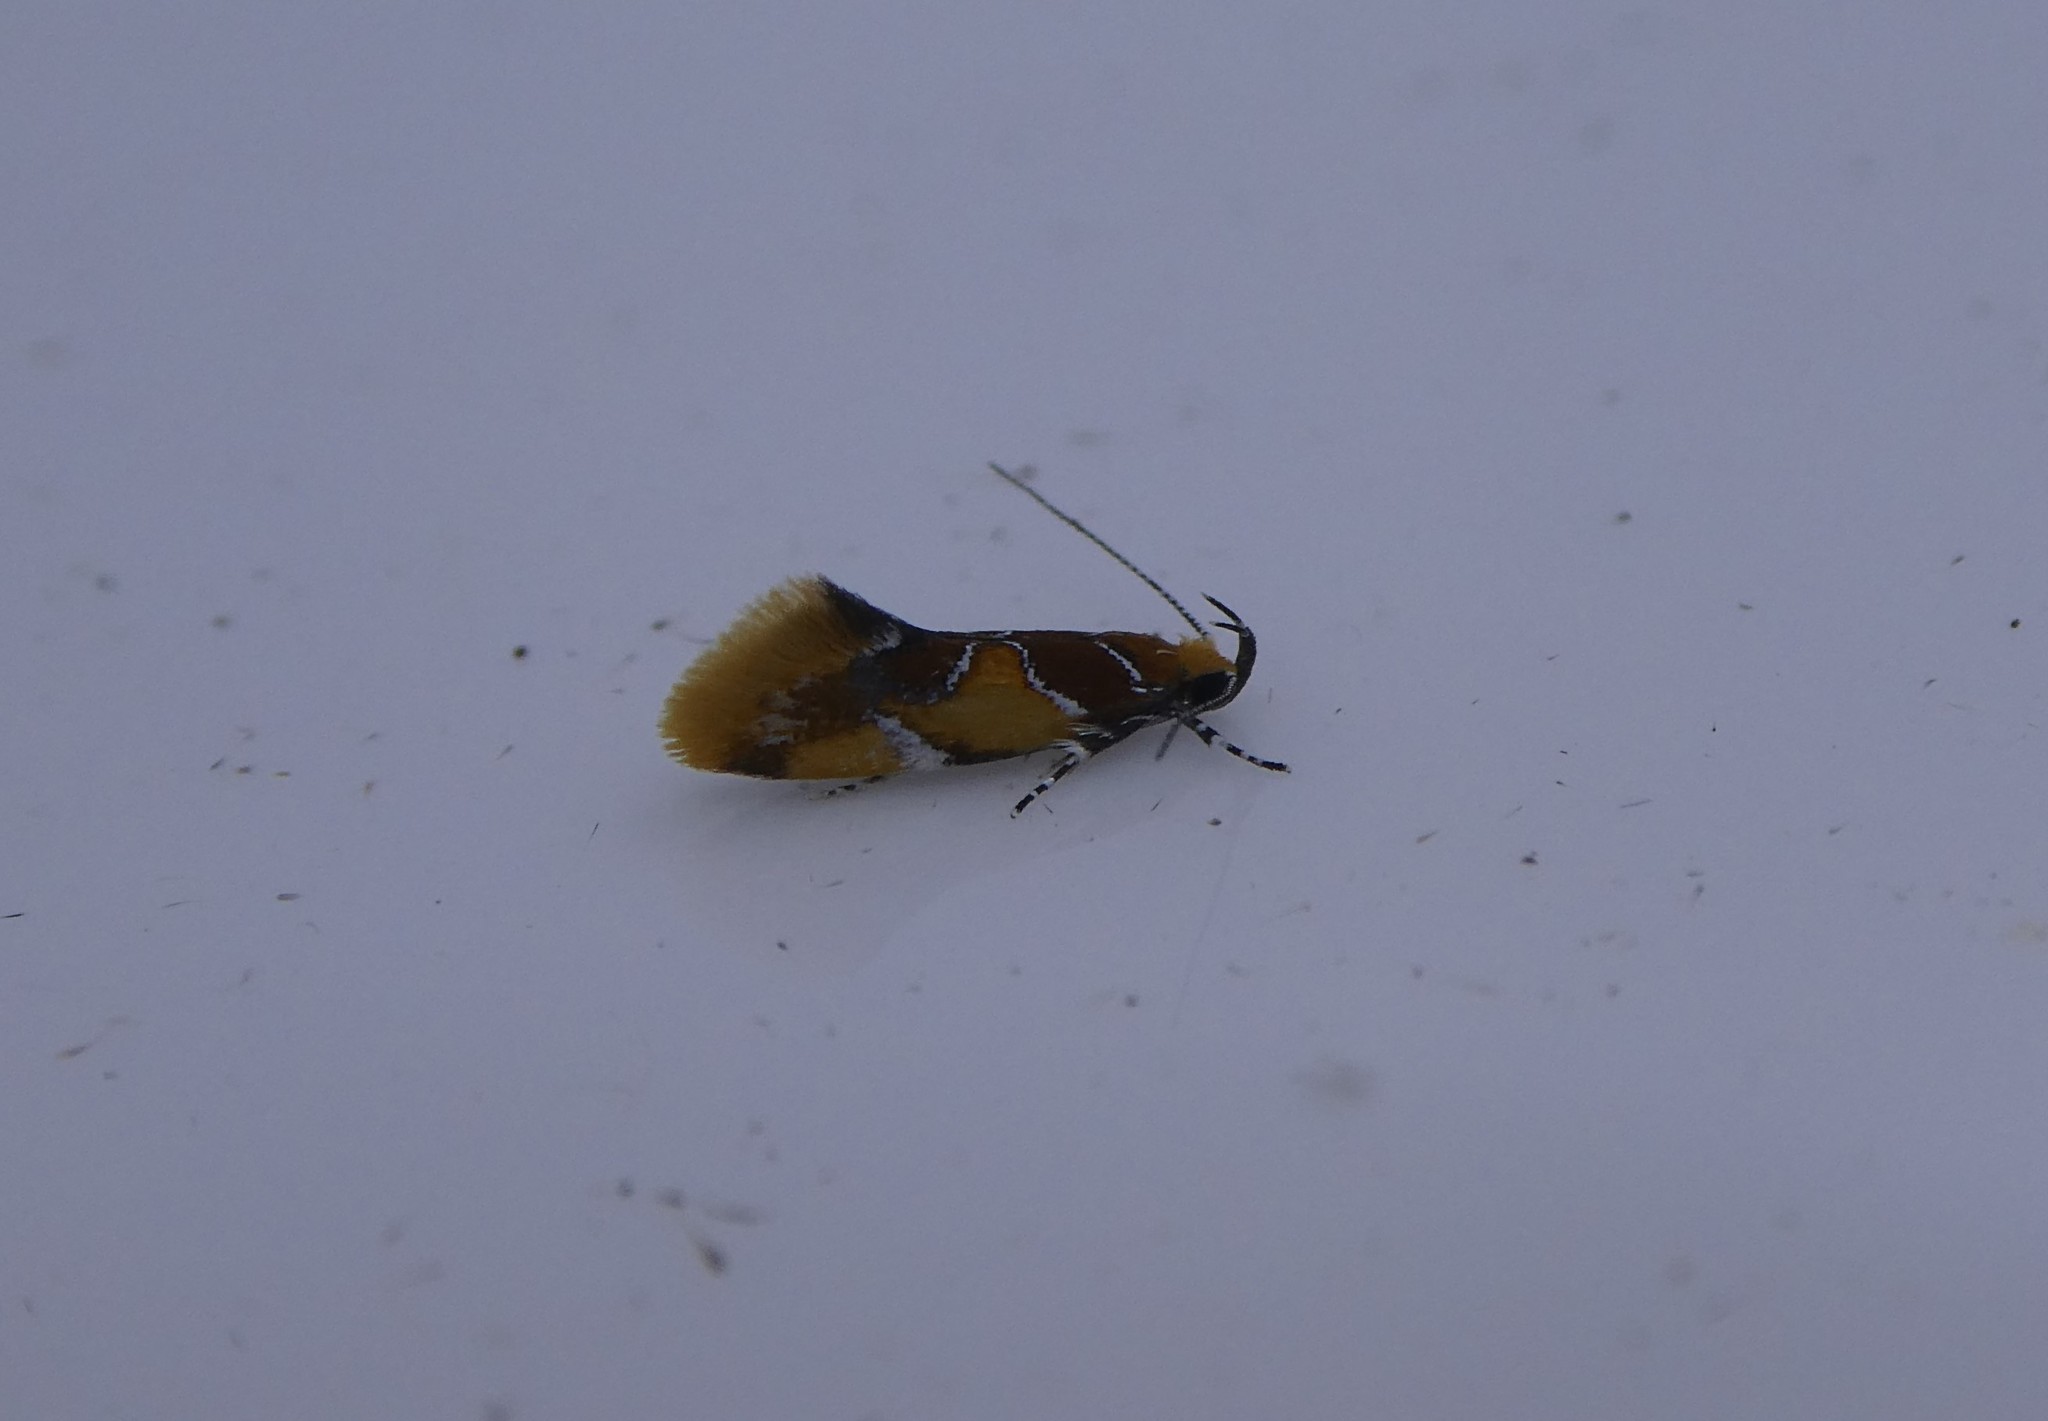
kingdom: Animalia
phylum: Arthropoda
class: Insecta
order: Lepidoptera
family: Oecophoridae
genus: Callima
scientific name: Callima argenticinctella
